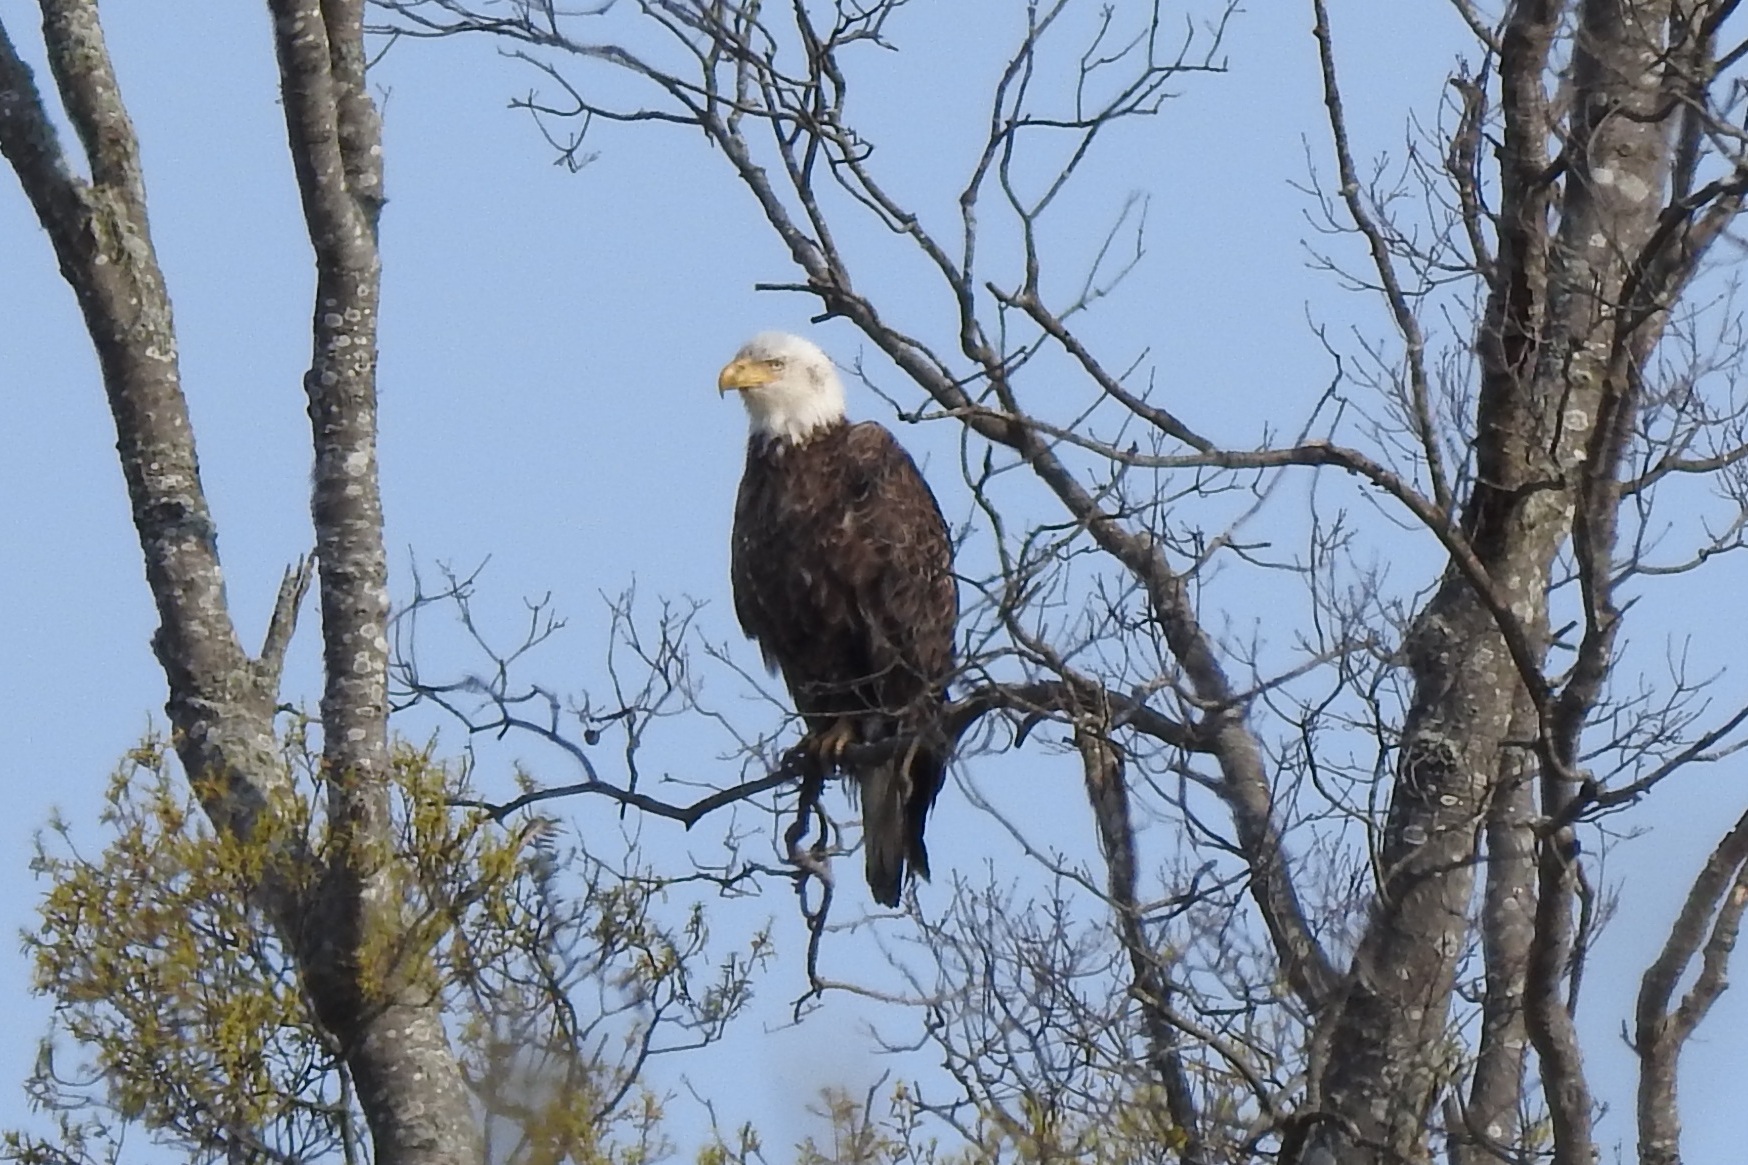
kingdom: Animalia
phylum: Chordata
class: Aves
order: Accipitriformes
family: Accipitridae
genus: Haliaeetus
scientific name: Haliaeetus leucocephalus
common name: Bald eagle
